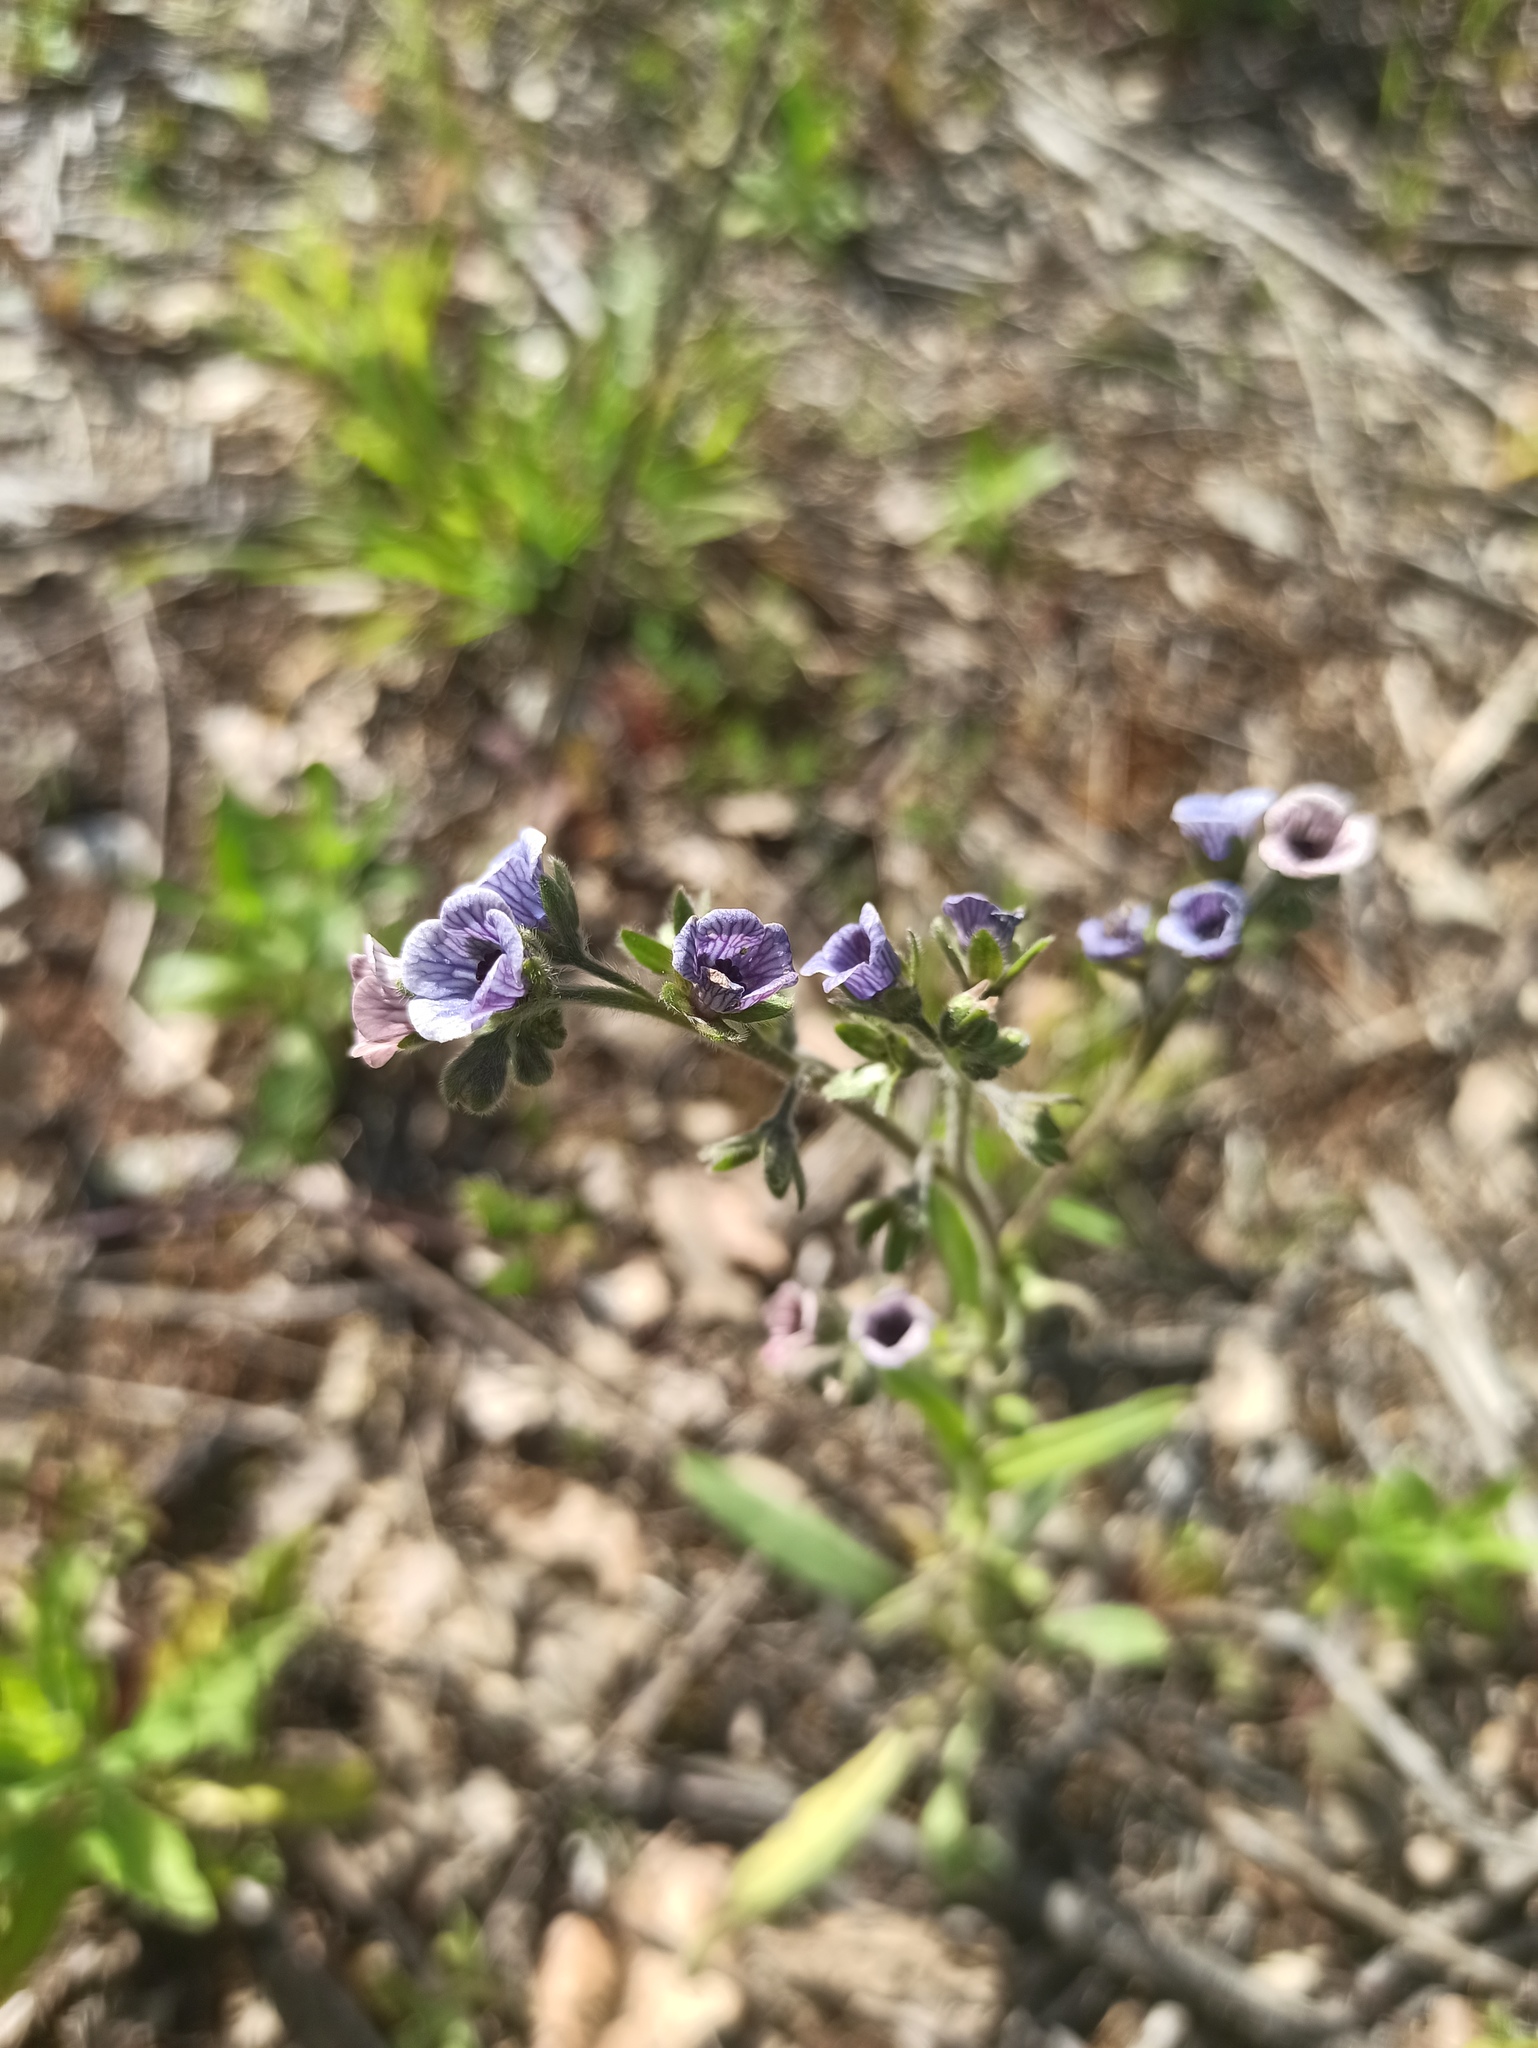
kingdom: Plantae
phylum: Tracheophyta
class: Magnoliopsida
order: Boraginales
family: Boraginaceae
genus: Cynoglossum
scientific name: Cynoglossum creticum
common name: Blue hound's tongue
